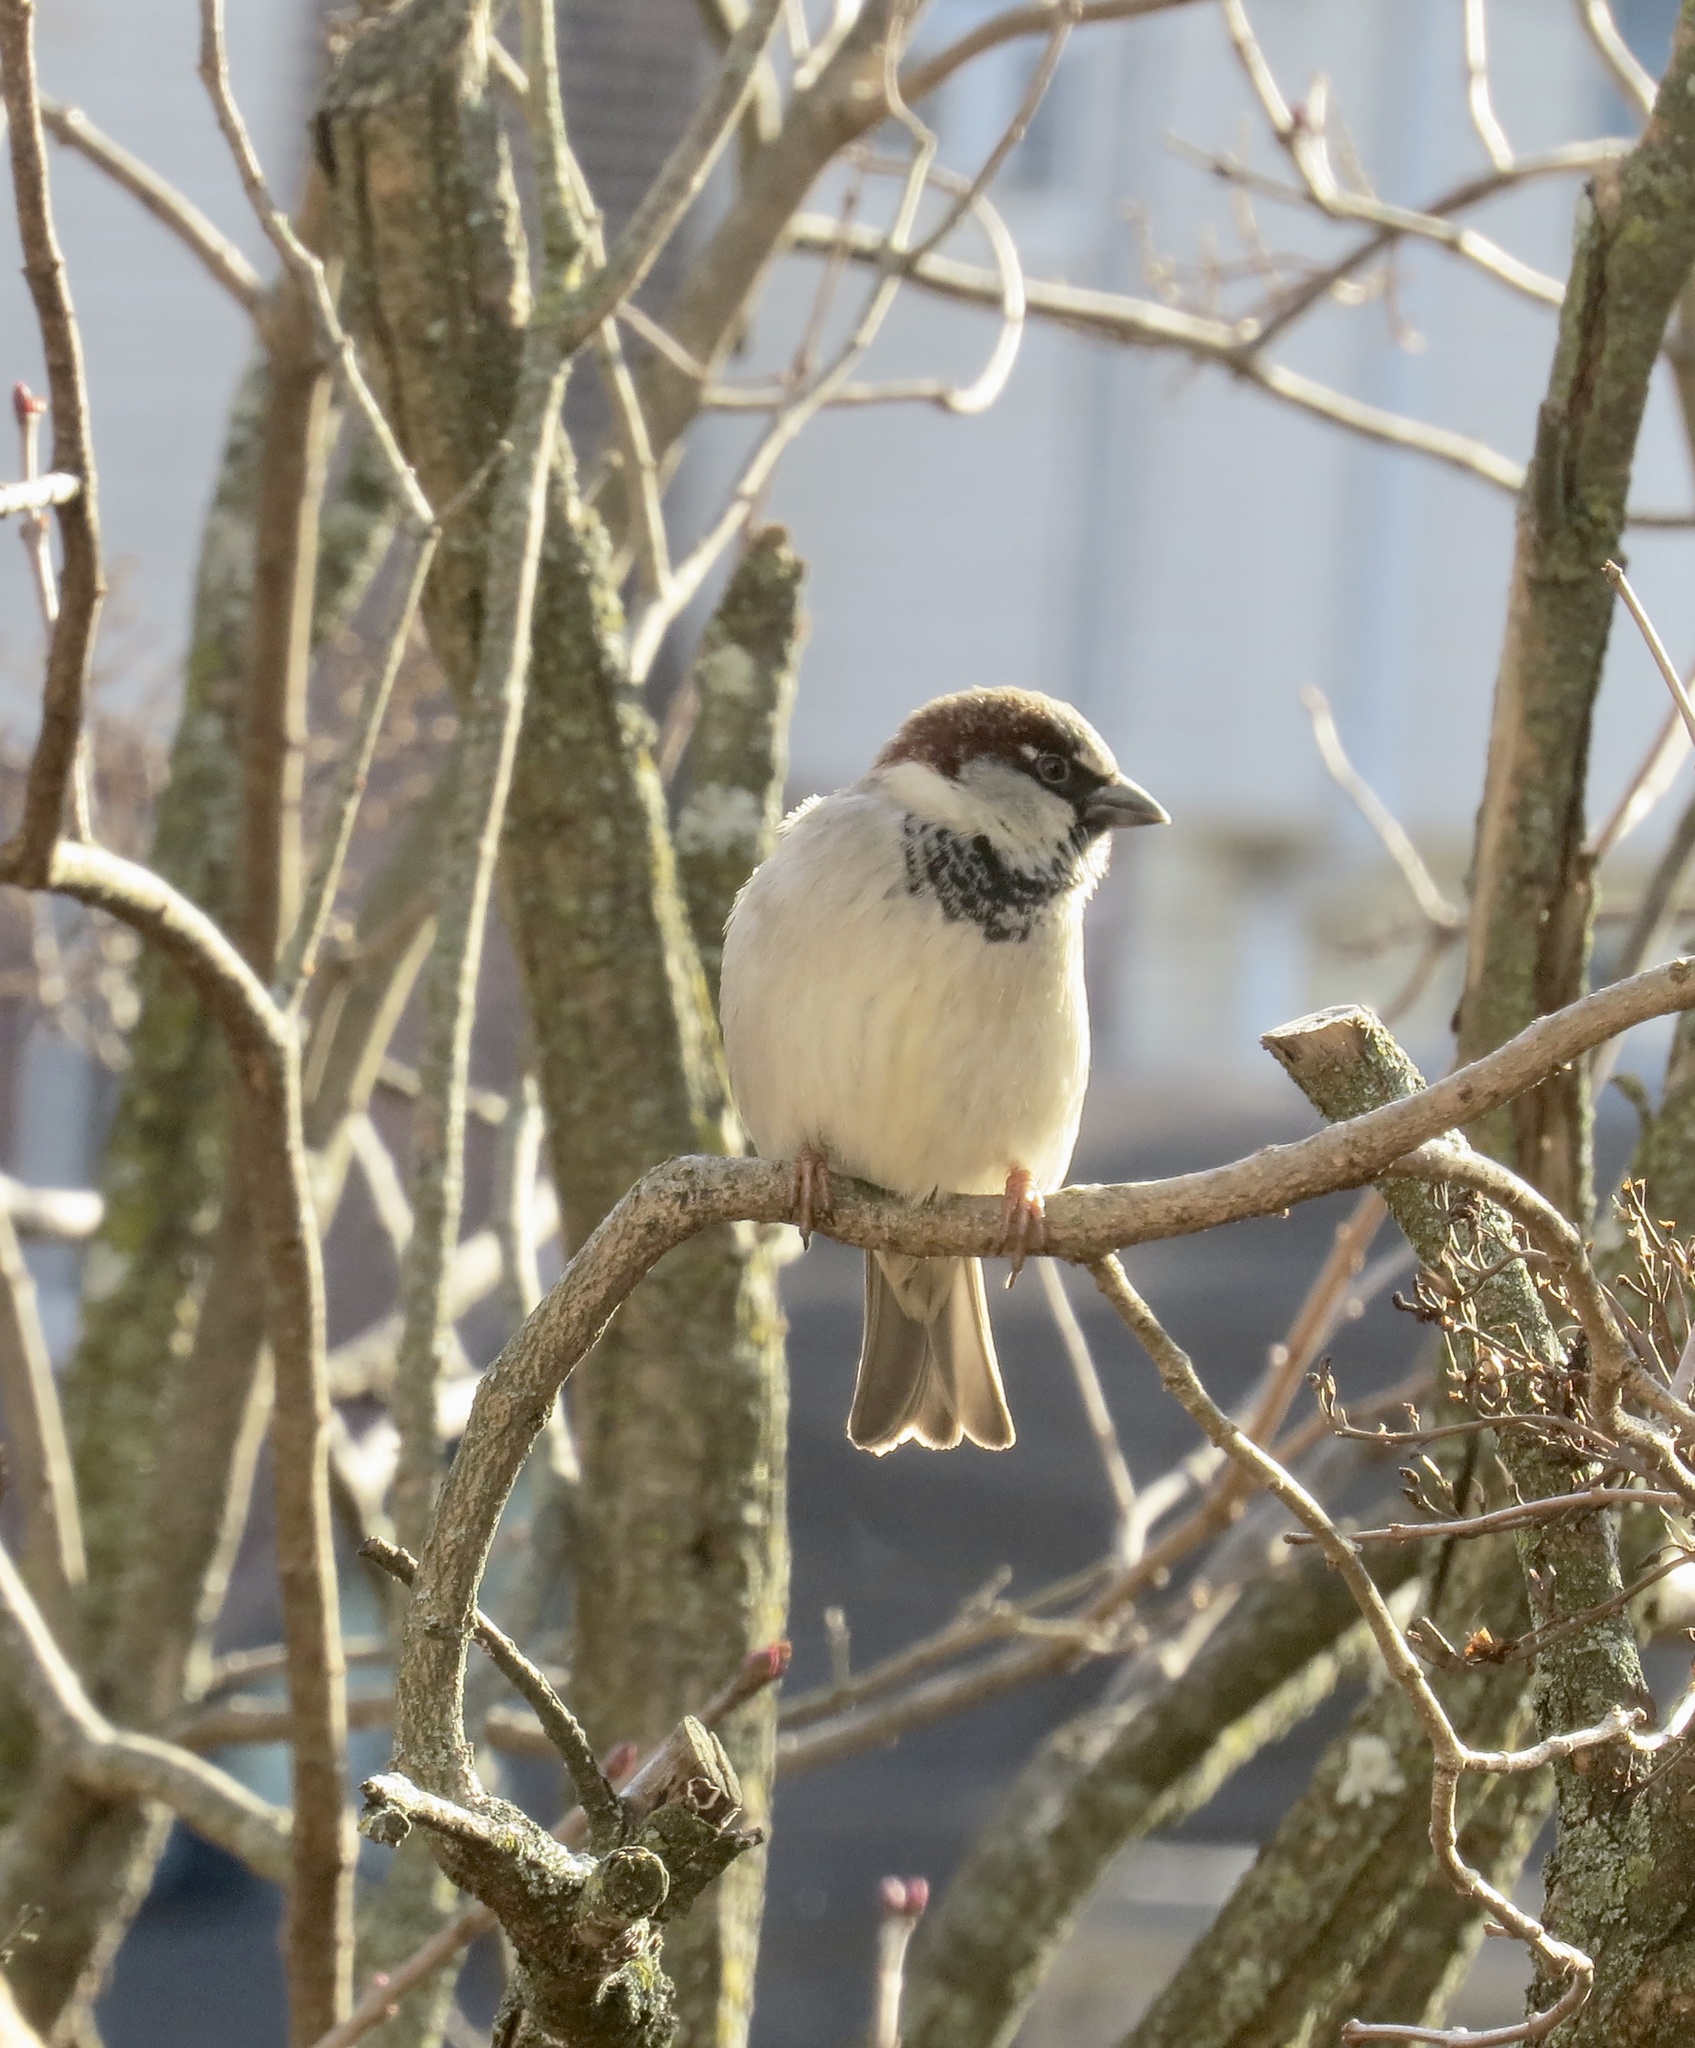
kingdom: Animalia
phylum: Chordata
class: Aves
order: Passeriformes
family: Passeridae
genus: Passer
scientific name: Passer domesticus
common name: House sparrow
